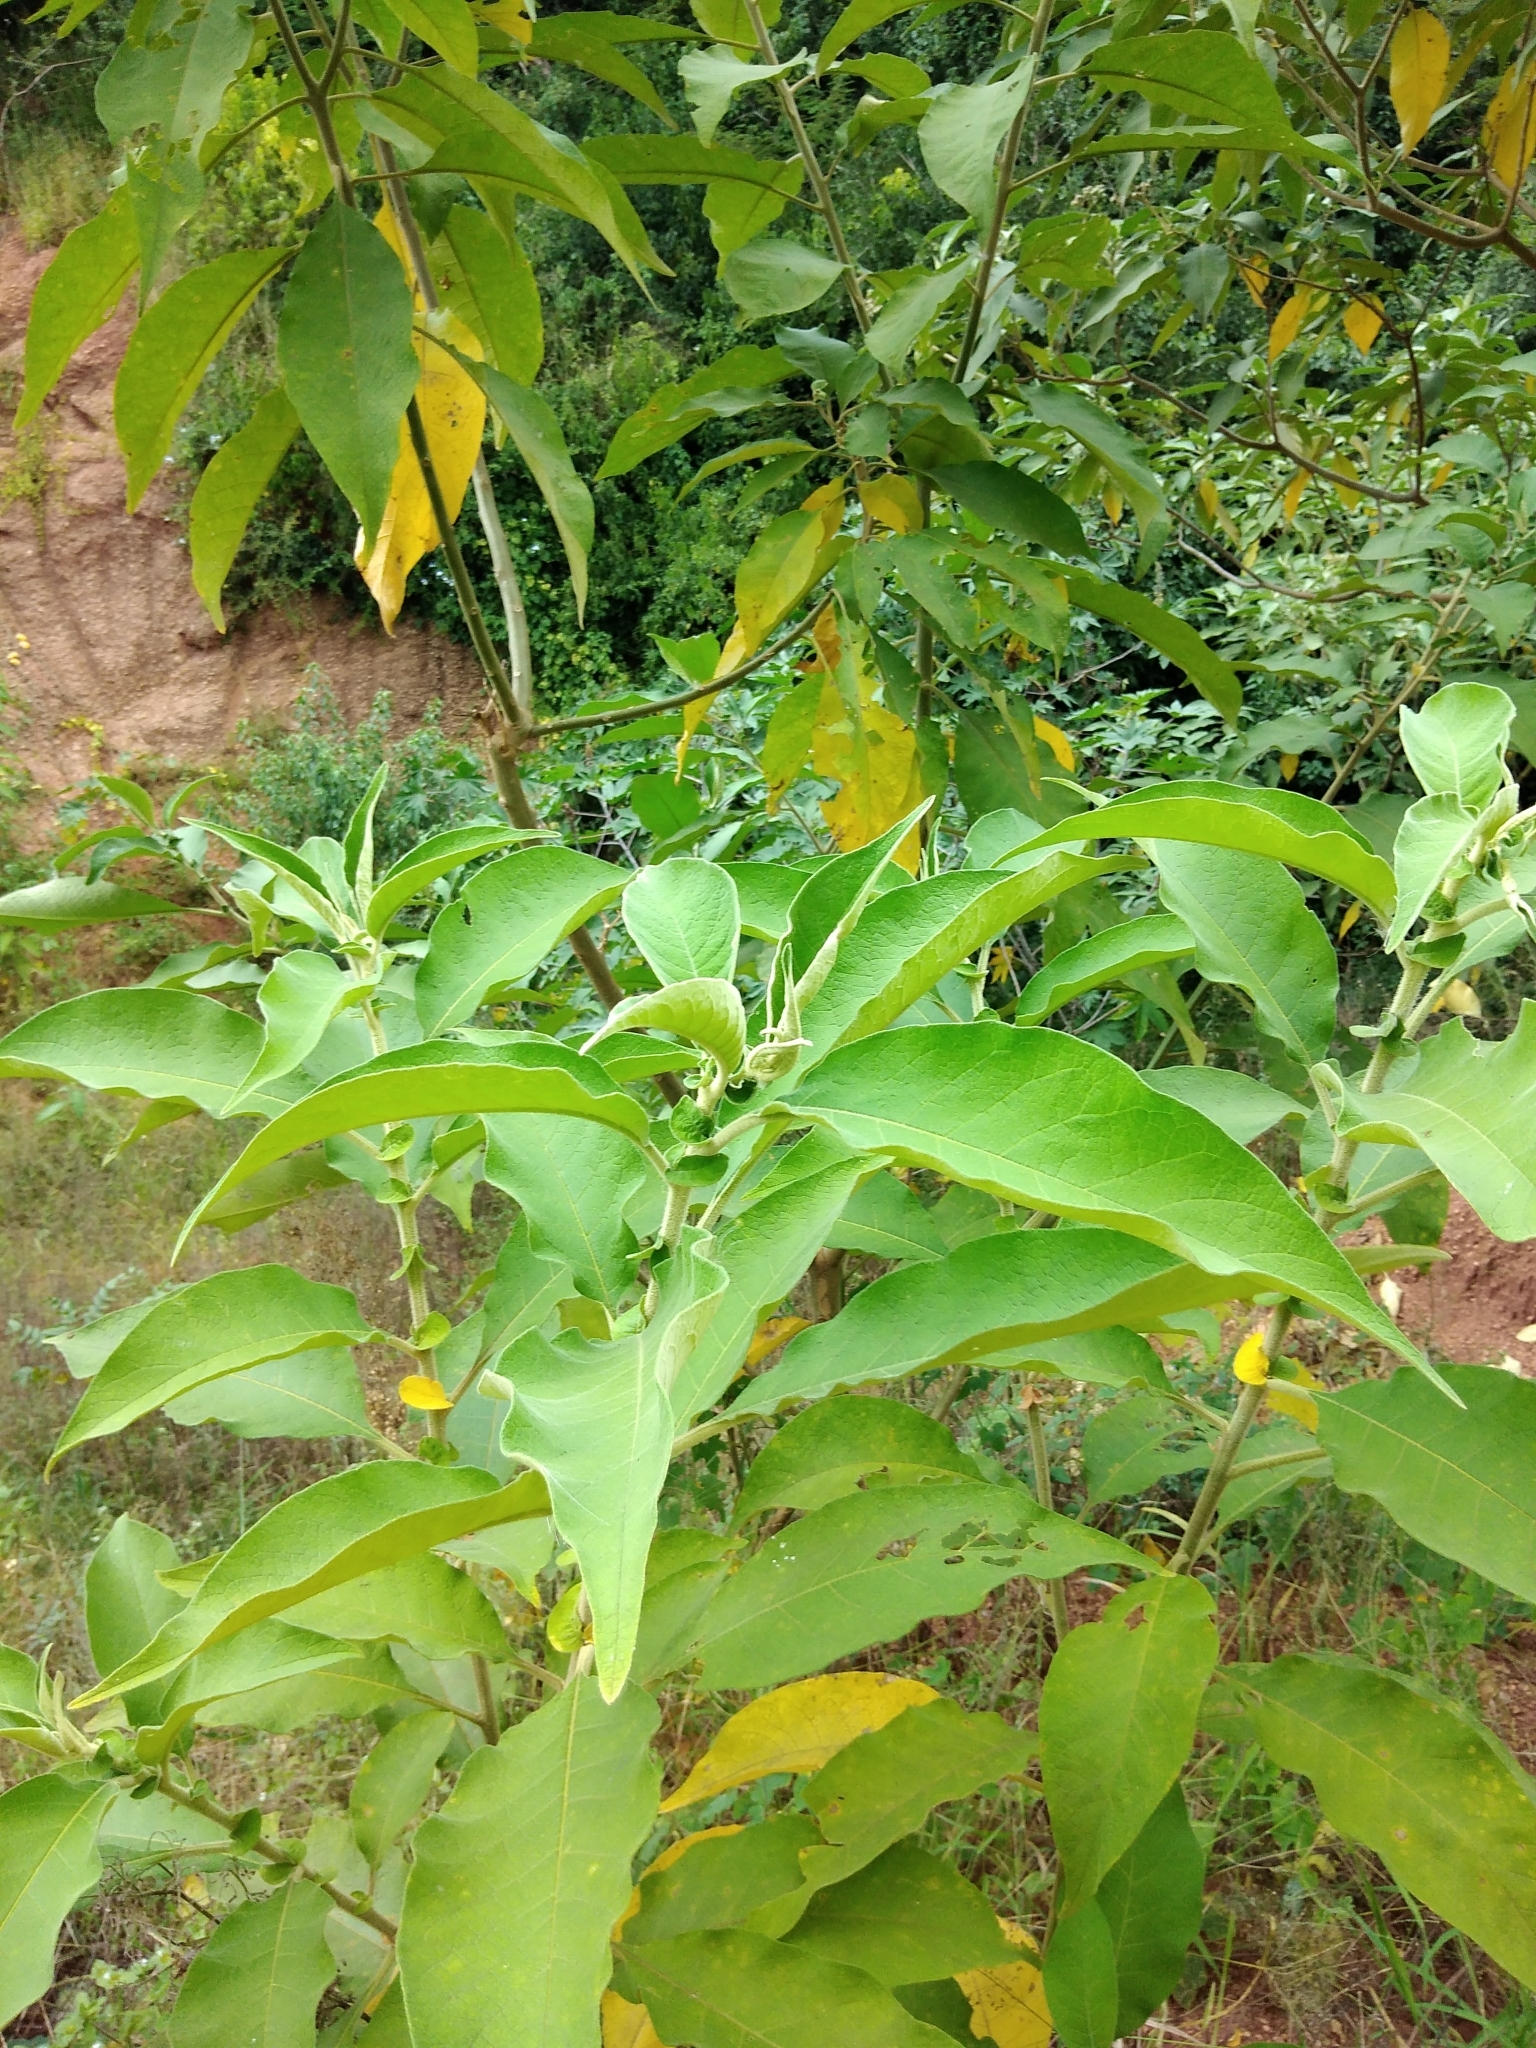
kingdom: Plantae
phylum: Tracheophyta
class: Magnoliopsida
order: Solanales
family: Solanaceae
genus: Solanum
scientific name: Solanum mauritianum
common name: Earleaf nightshade
